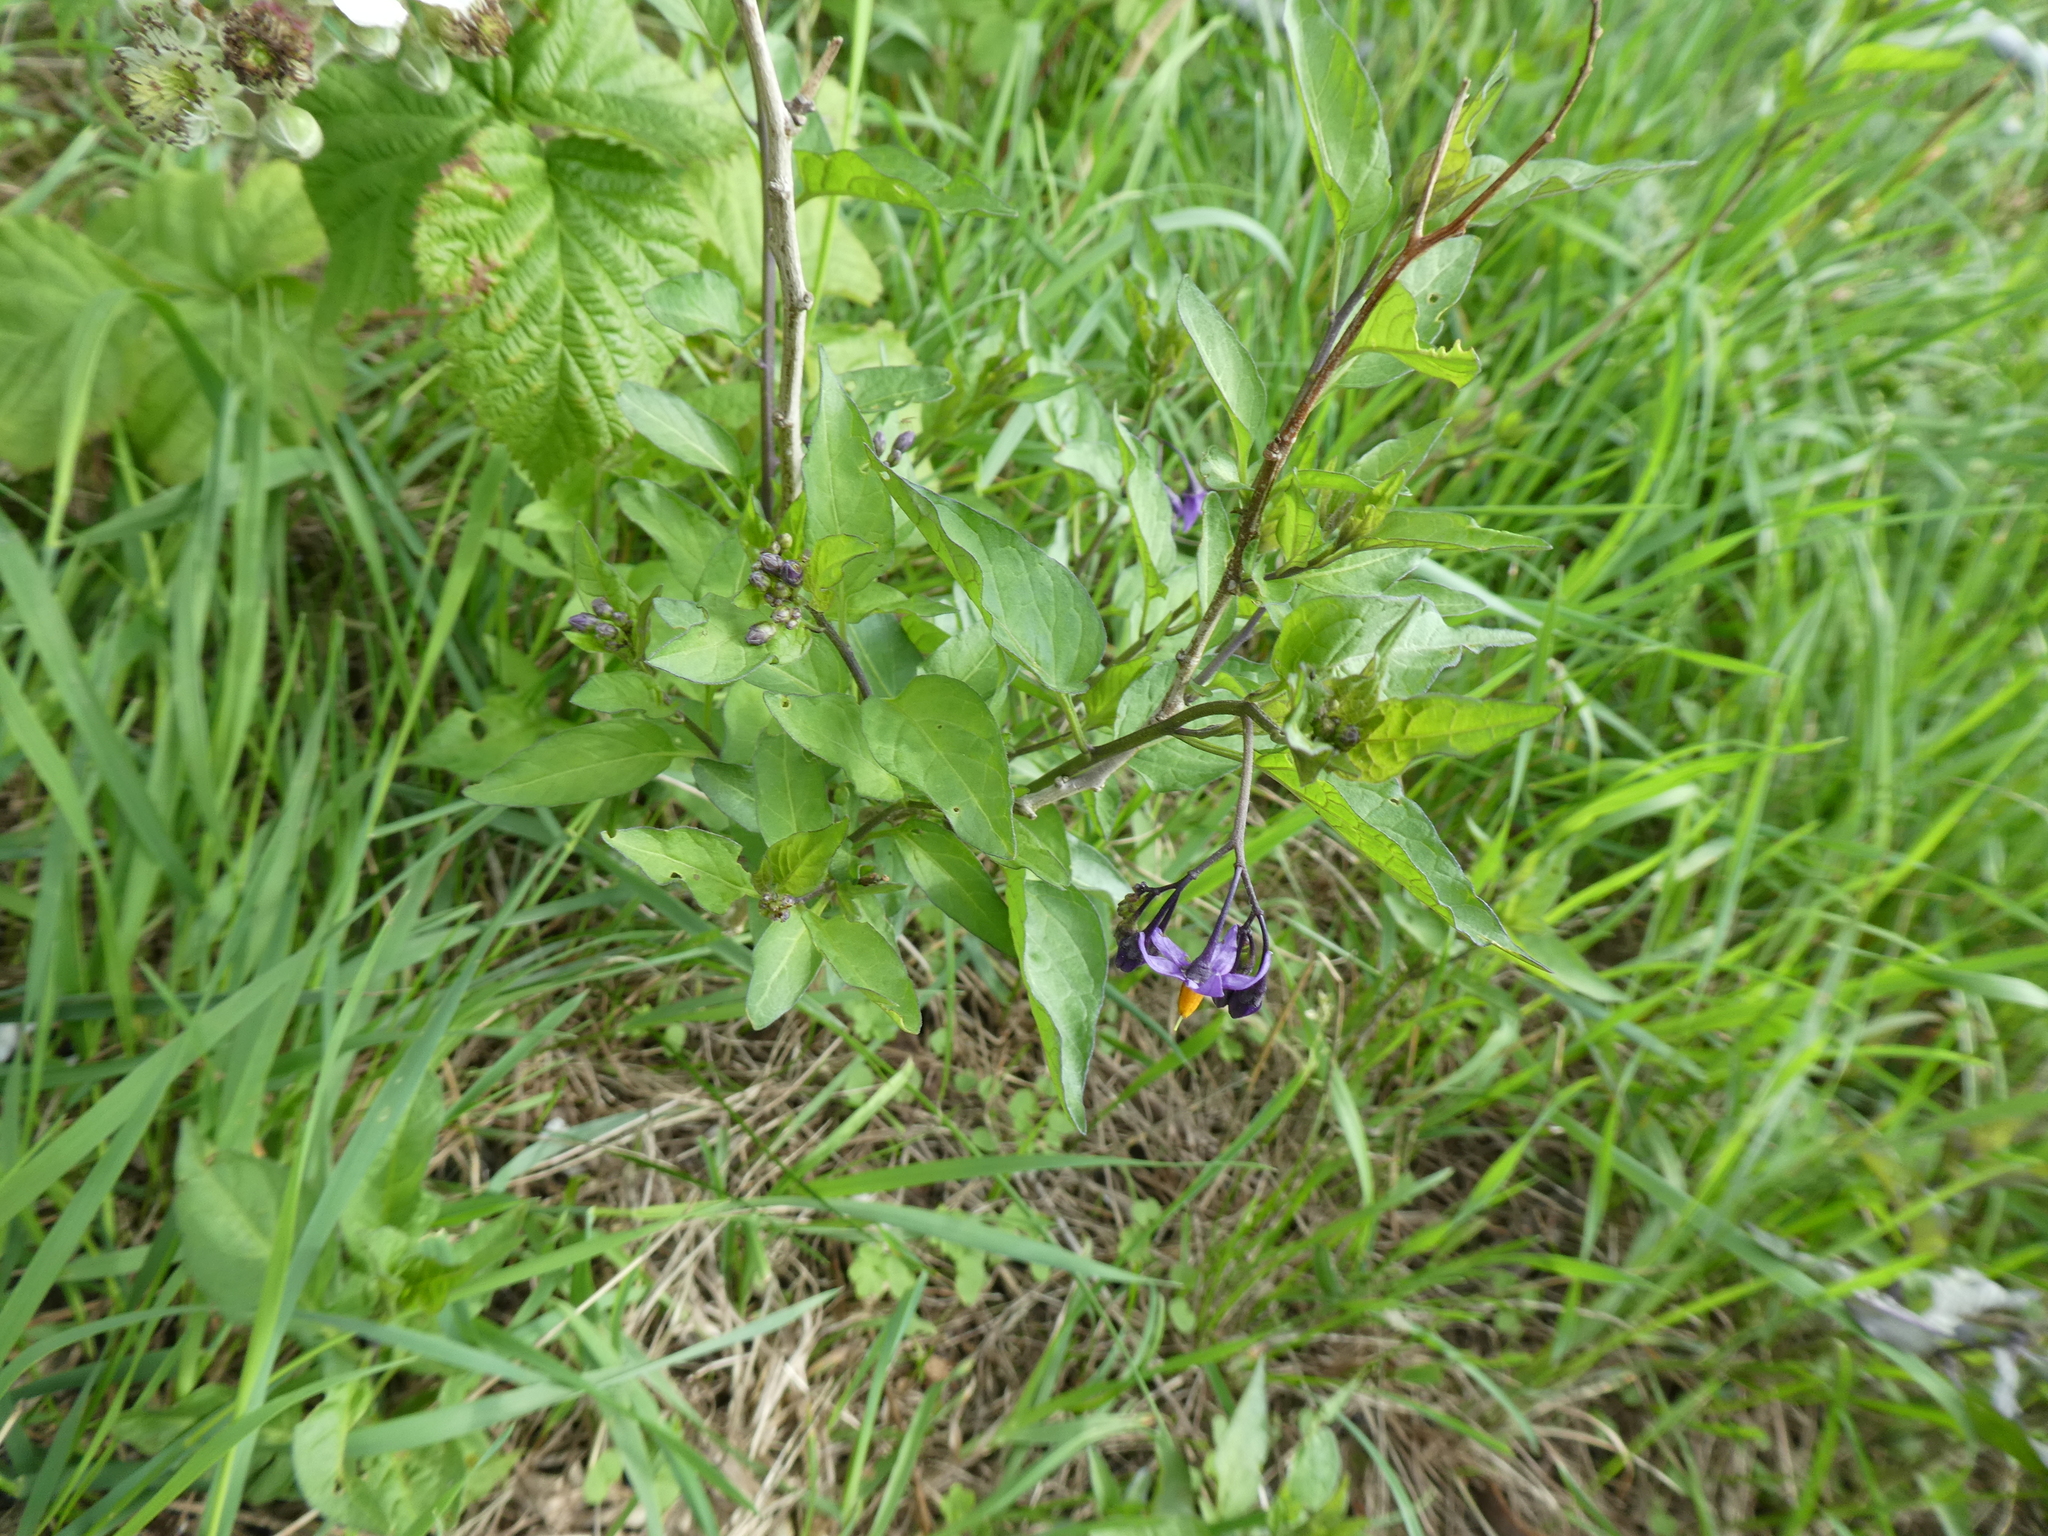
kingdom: Plantae
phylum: Tracheophyta
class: Magnoliopsida
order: Solanales
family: Solanaceae
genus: Solanum
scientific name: Solanum dulcamara
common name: Climbing nightshade
